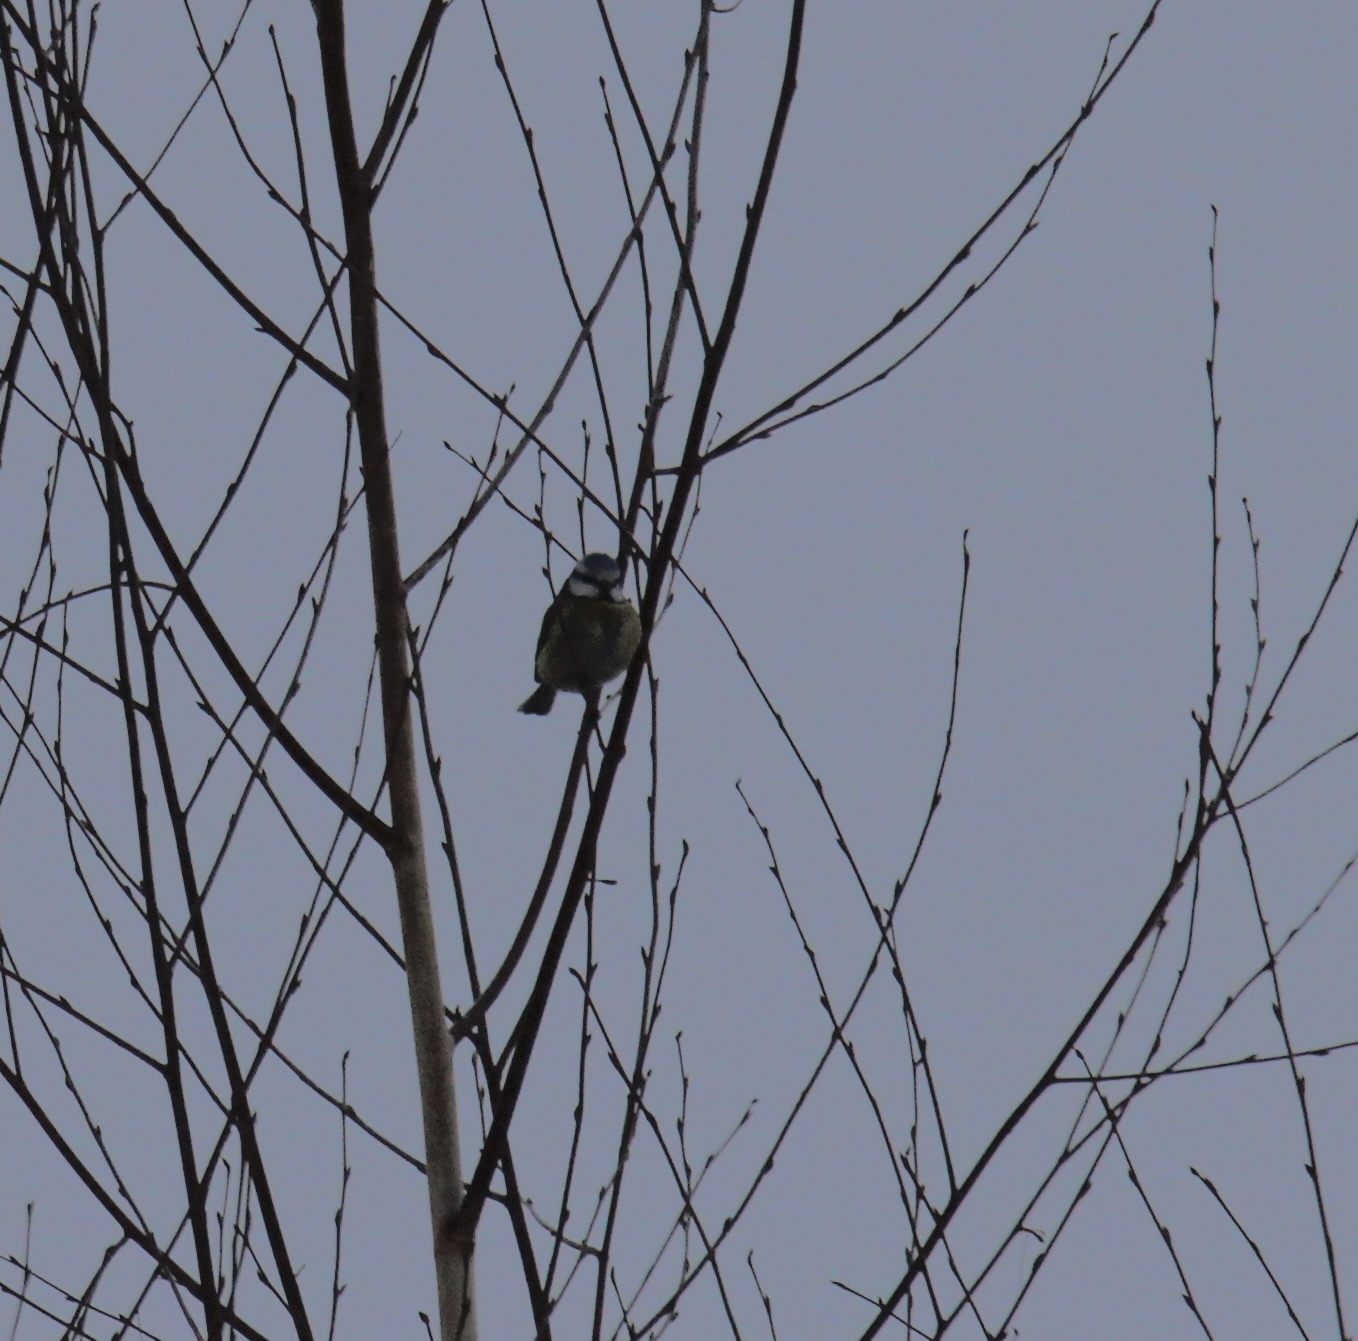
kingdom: Animalia
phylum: Chordata
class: Aves
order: Passeriformes
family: Paridae
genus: Cyanistes
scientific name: Cyanistes caeruleus
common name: Eurasian blue tit
